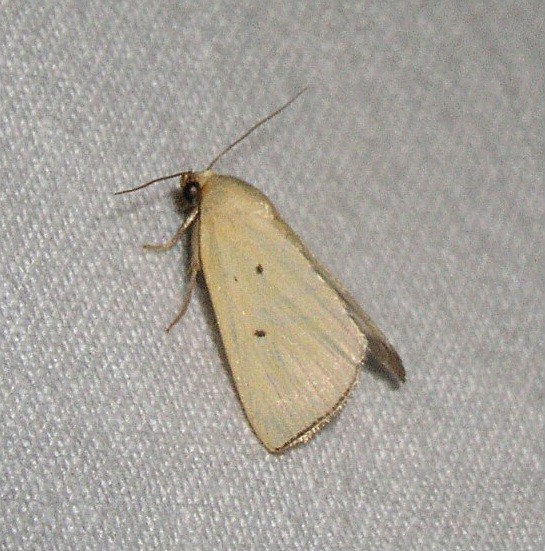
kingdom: Animalia
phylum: Arthropoda
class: Insecta
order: Lepidoptera
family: Noctuidae
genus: Marimatha
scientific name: Marimatha nigrofimbria
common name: Black-bordered lemon moth
